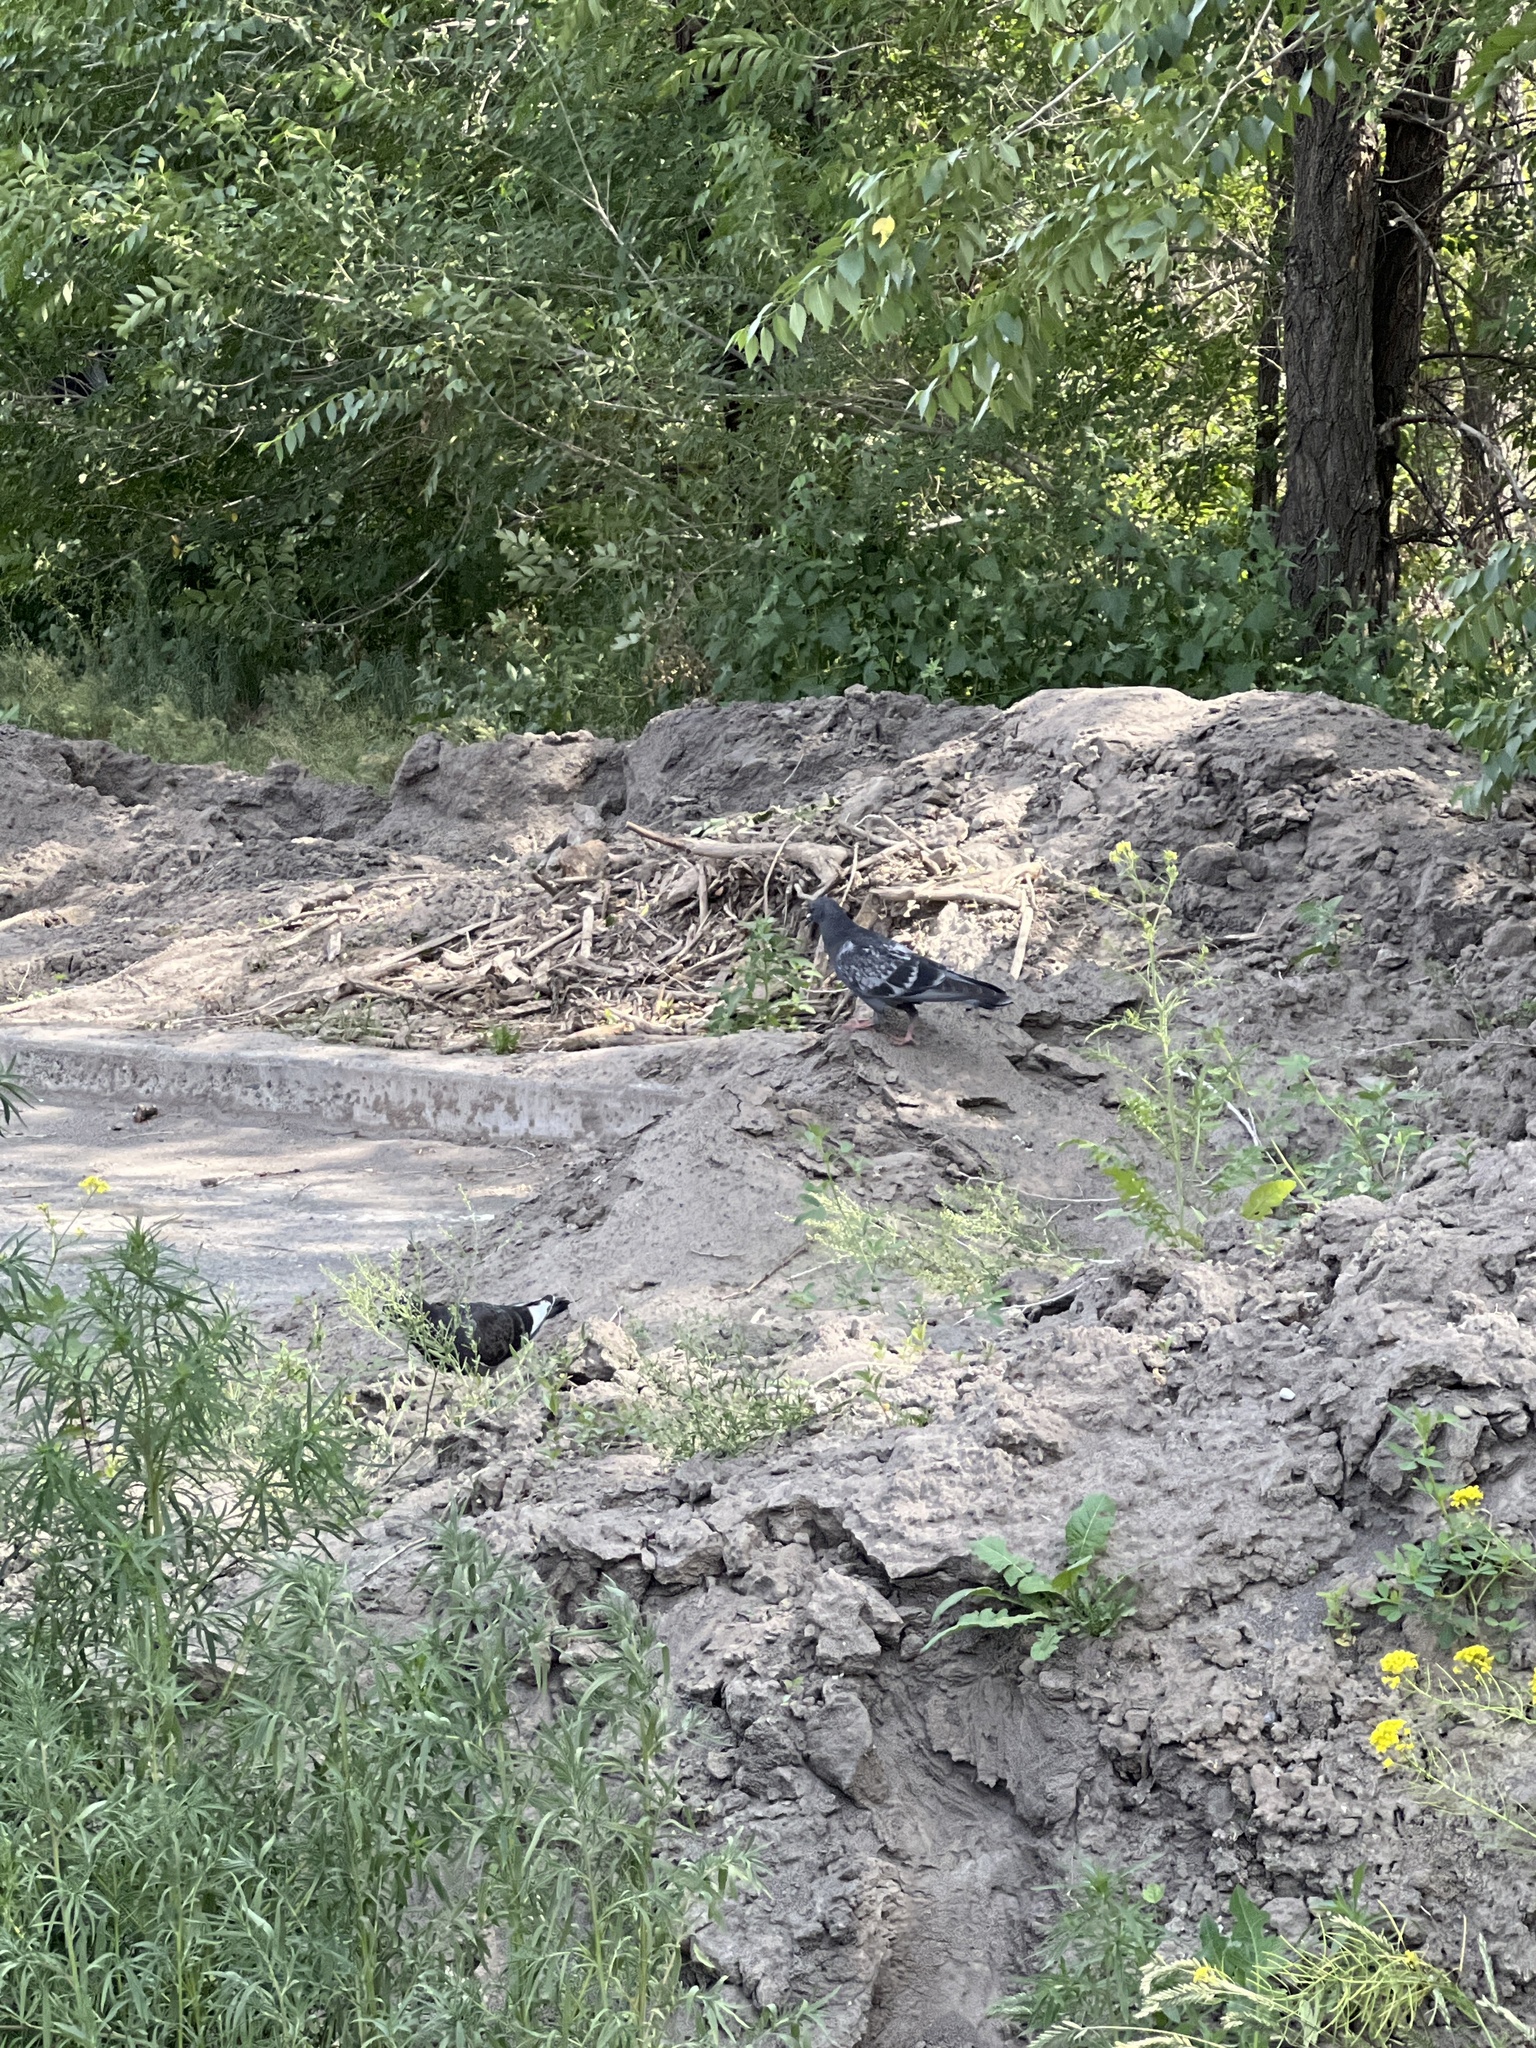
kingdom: Animalia
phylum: Chordata
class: Aves
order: Columbiformes
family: Columbidae
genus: Columba
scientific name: Columba livia
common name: Rock pigeon
